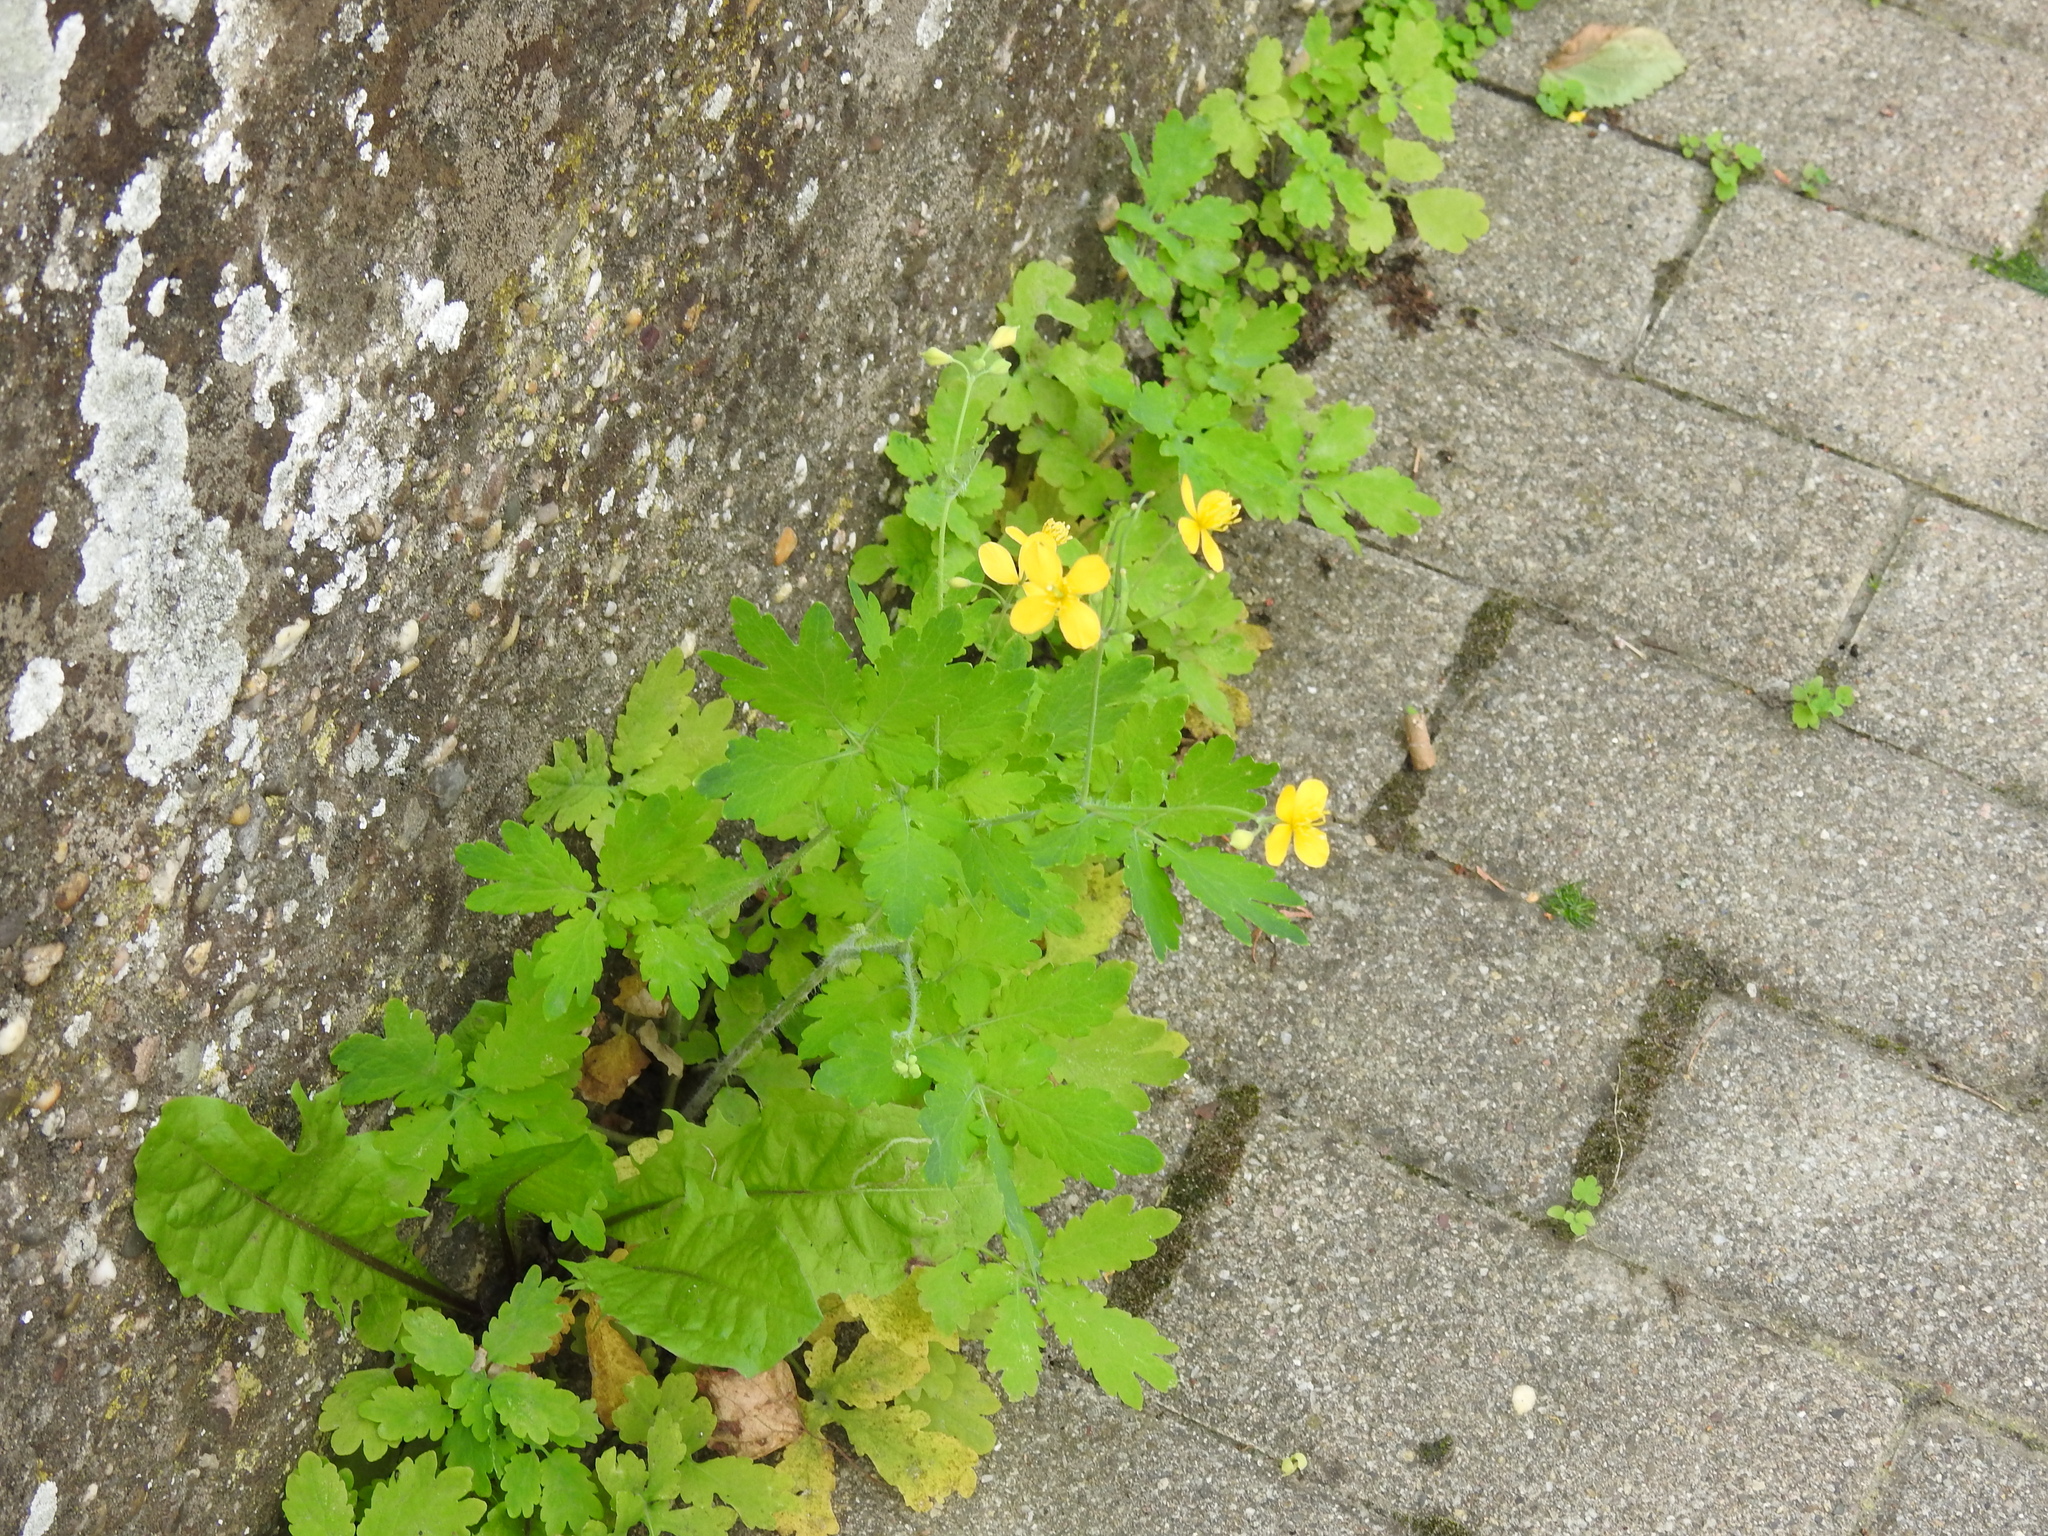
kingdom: Plantae
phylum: Tracheophyta
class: Magnoliopsida
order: Ranunculales
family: Papaveraceae
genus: Chelidonium
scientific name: Chelidonium majus
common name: Greater celandine
